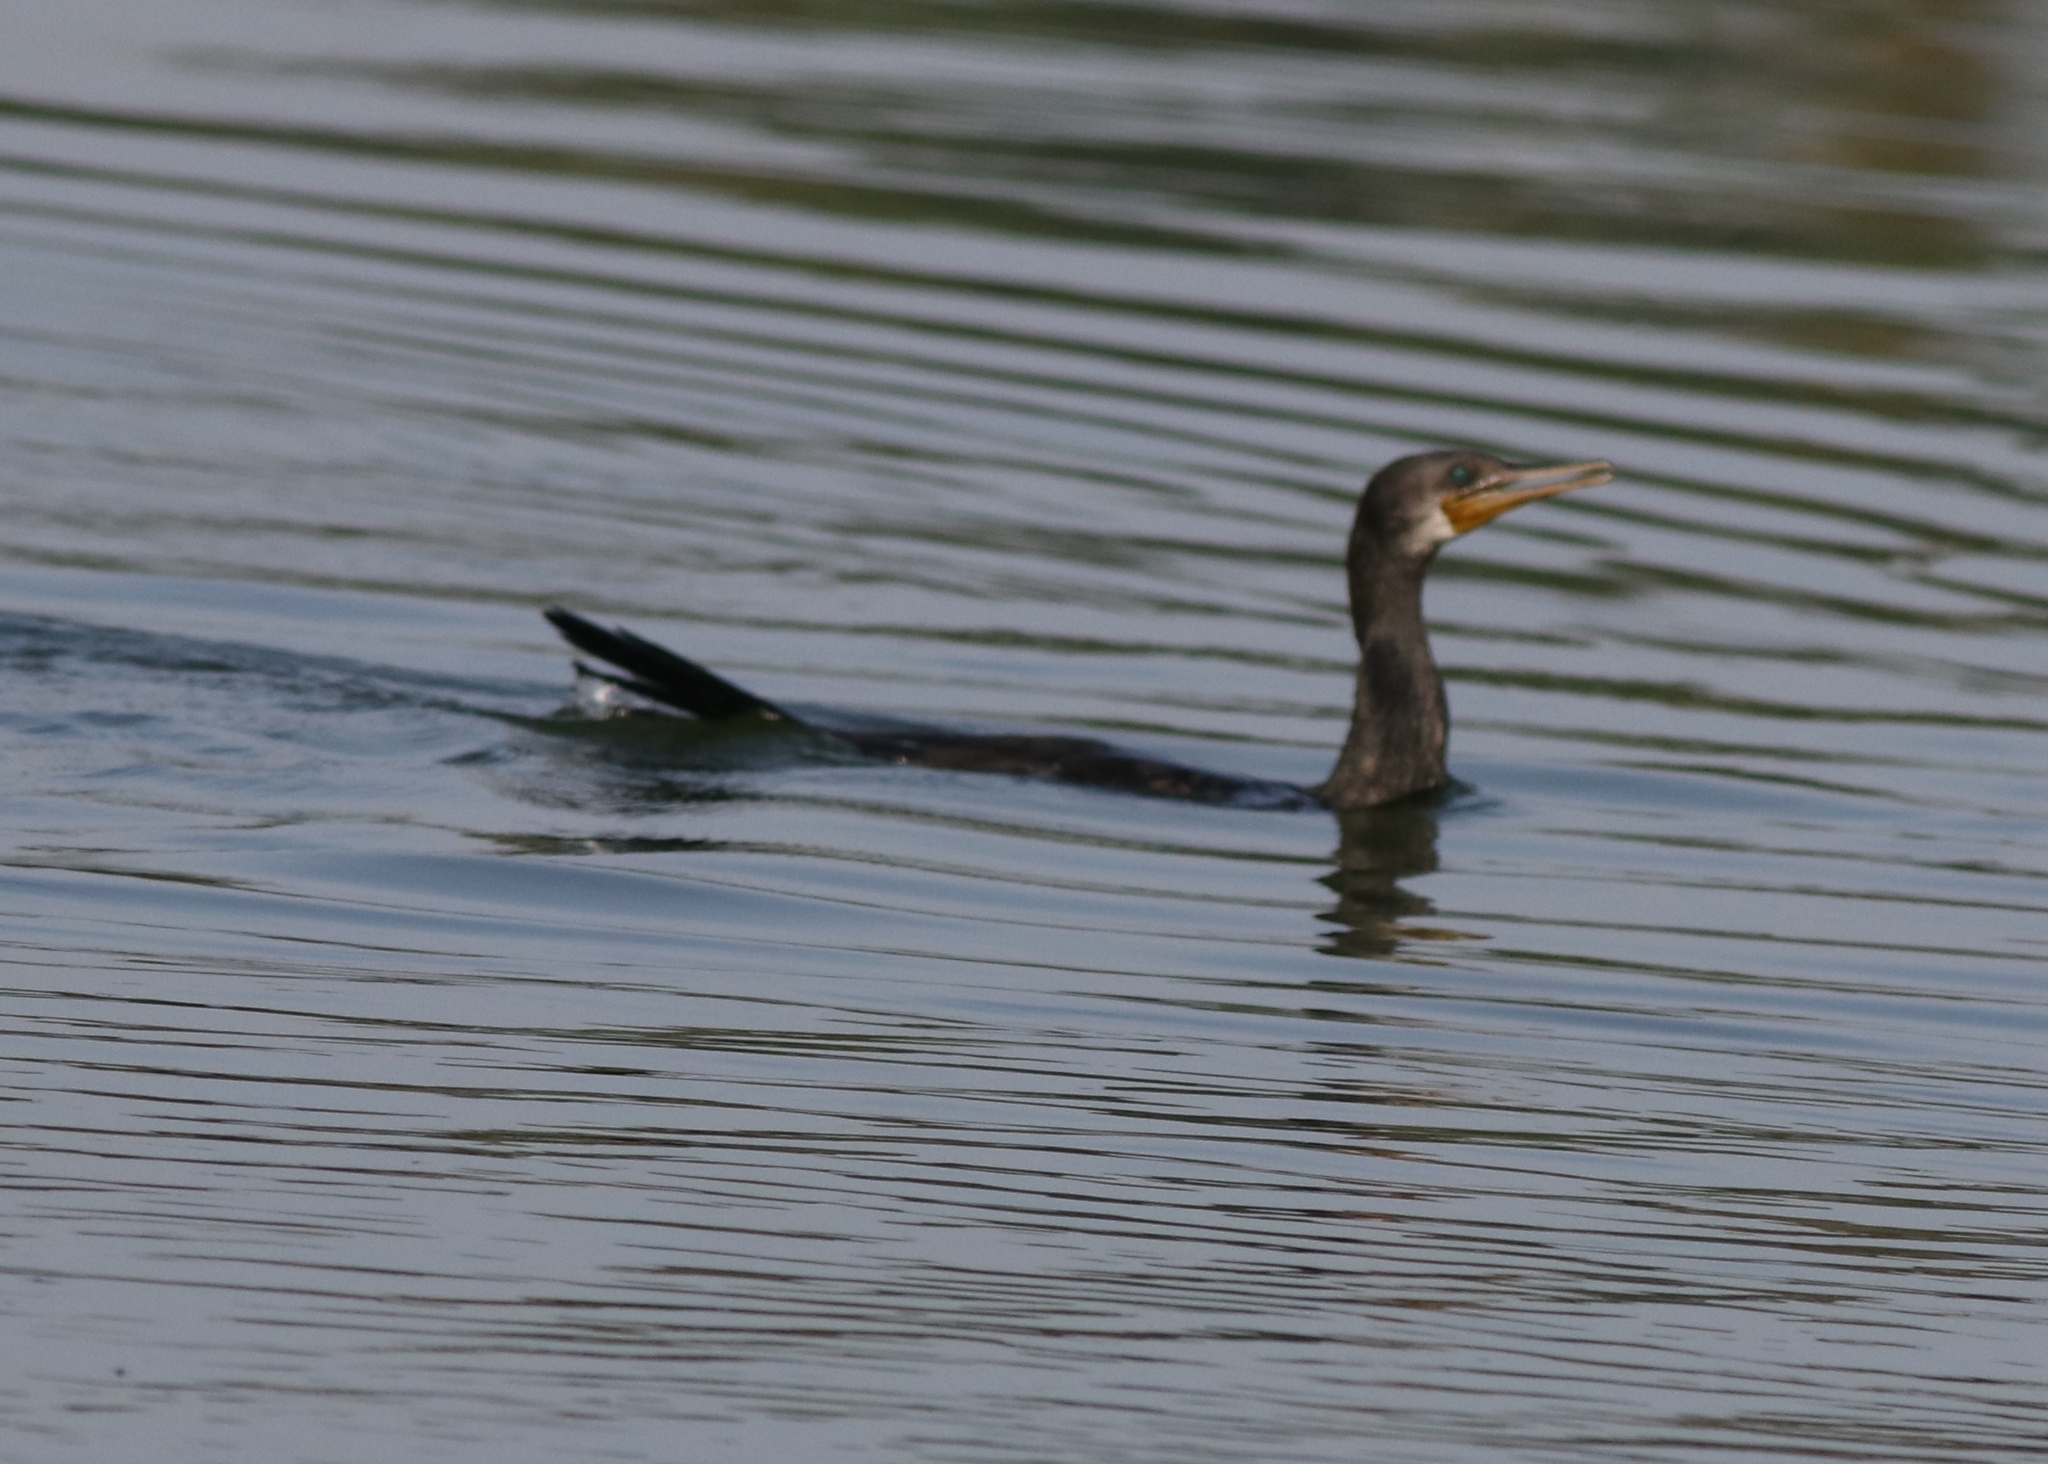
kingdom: Animalia
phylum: Chordata
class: Aves
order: Suliformes
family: Phalacrocoracidae
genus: Phalacrocorax
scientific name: Phalacrocorax fuscicollis
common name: Indian cormorant
